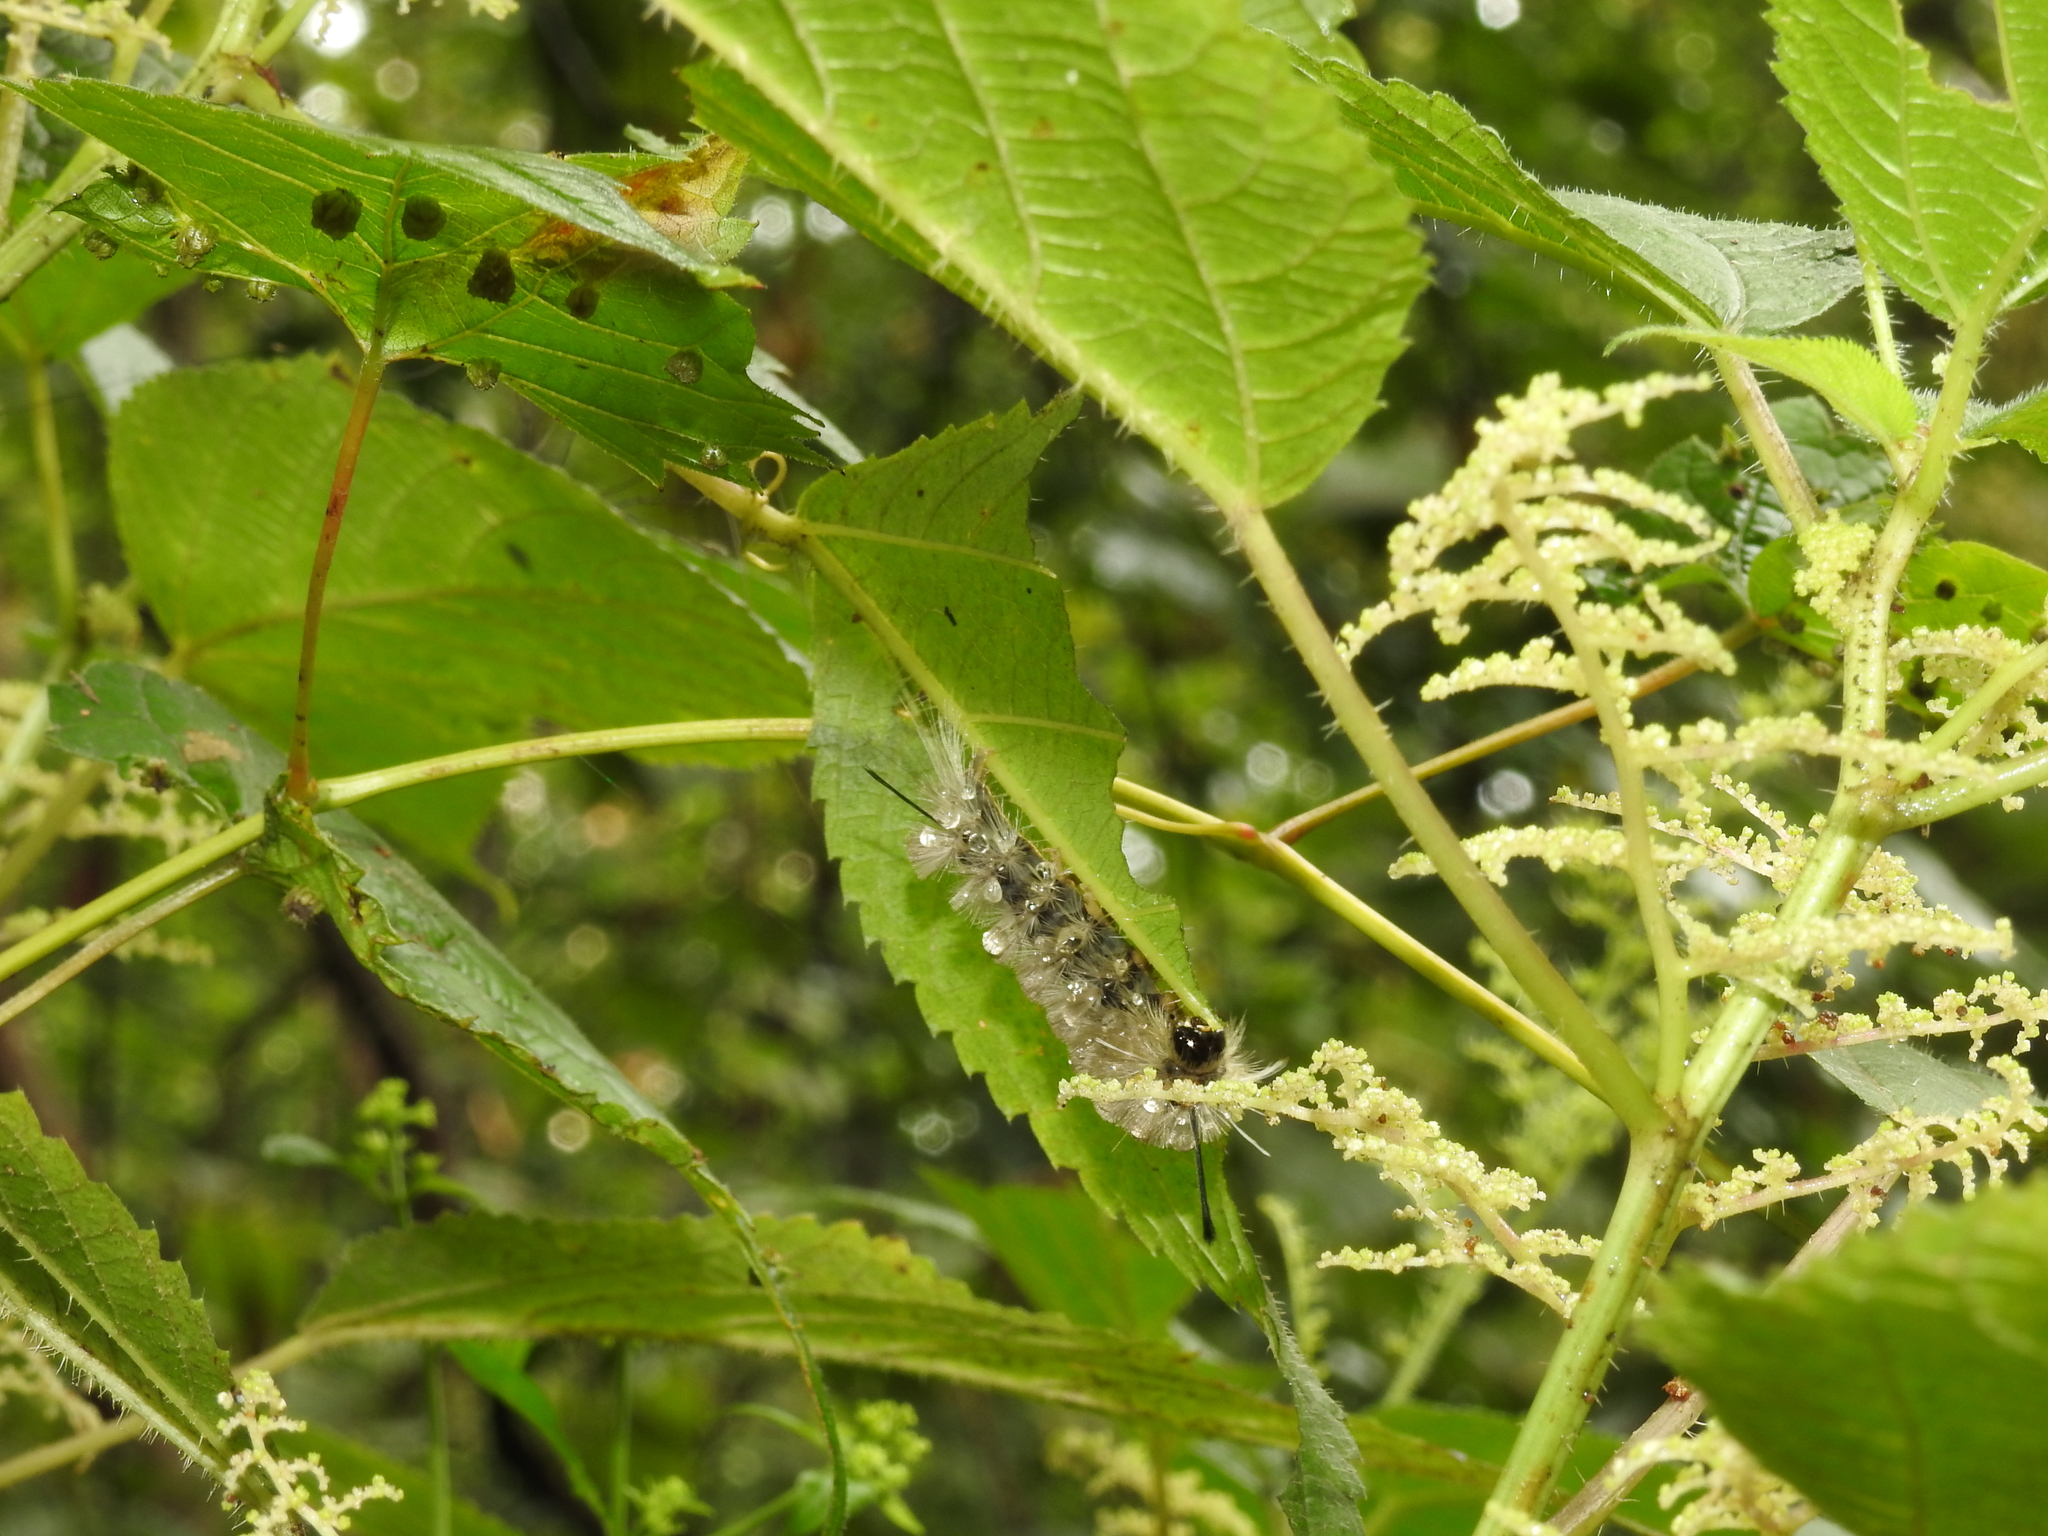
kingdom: Animalia
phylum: Arthropoda
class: Insecta
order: Lepidoptera
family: Erebidae
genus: Halysidota
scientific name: Halysidota tessellaris
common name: Banded tussock moth
